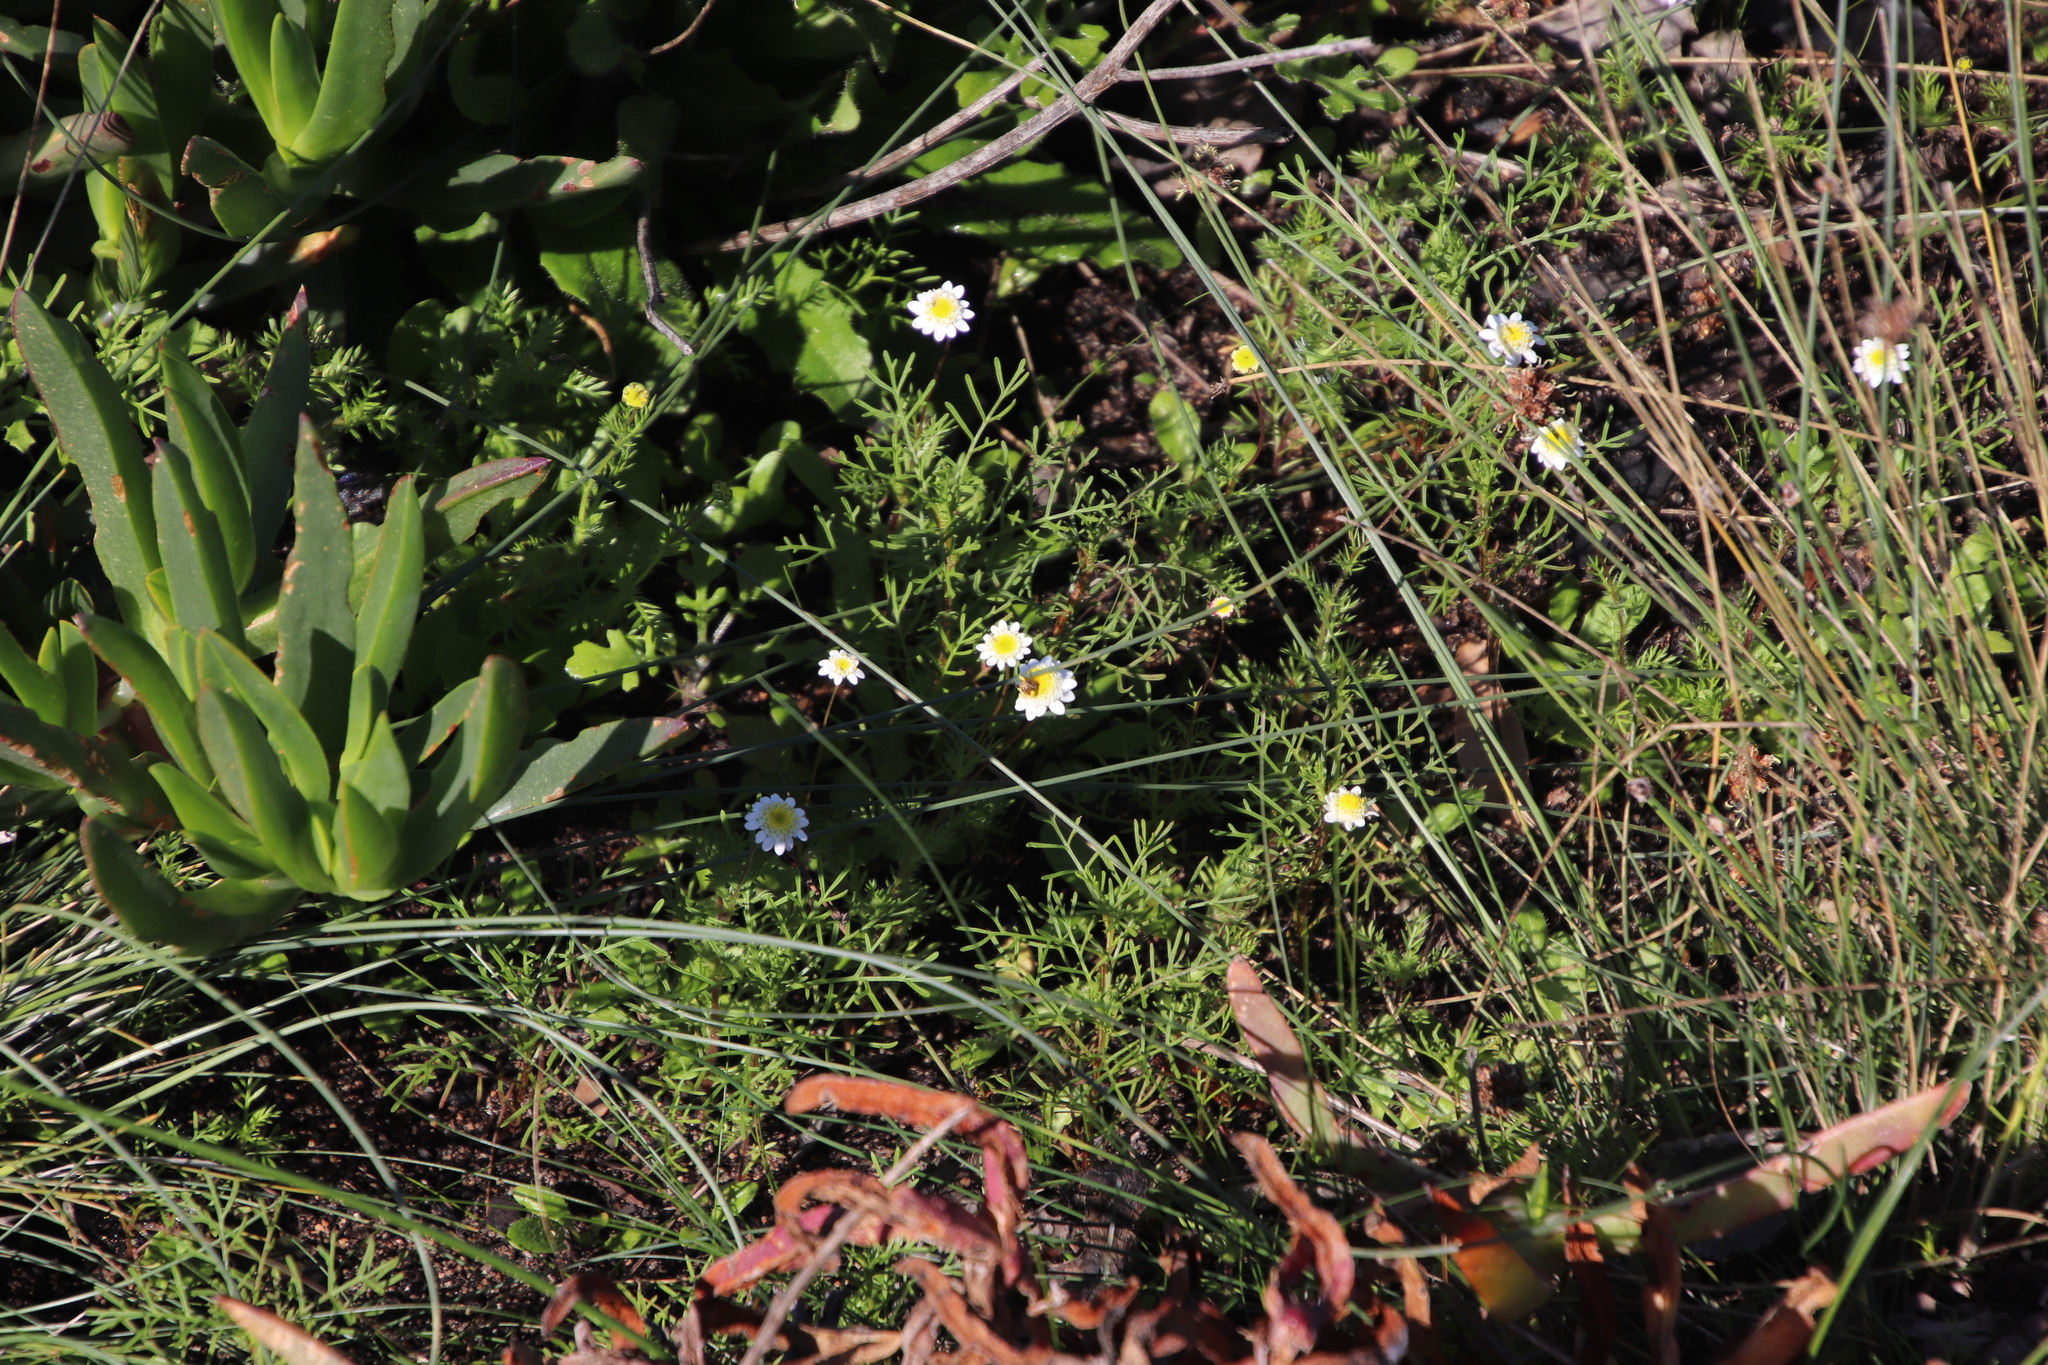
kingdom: Plantae
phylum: Tracheophyta
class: Magnoliopsida
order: Asterales
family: Asteraceae
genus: Cotula
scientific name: Cotula turbinata
